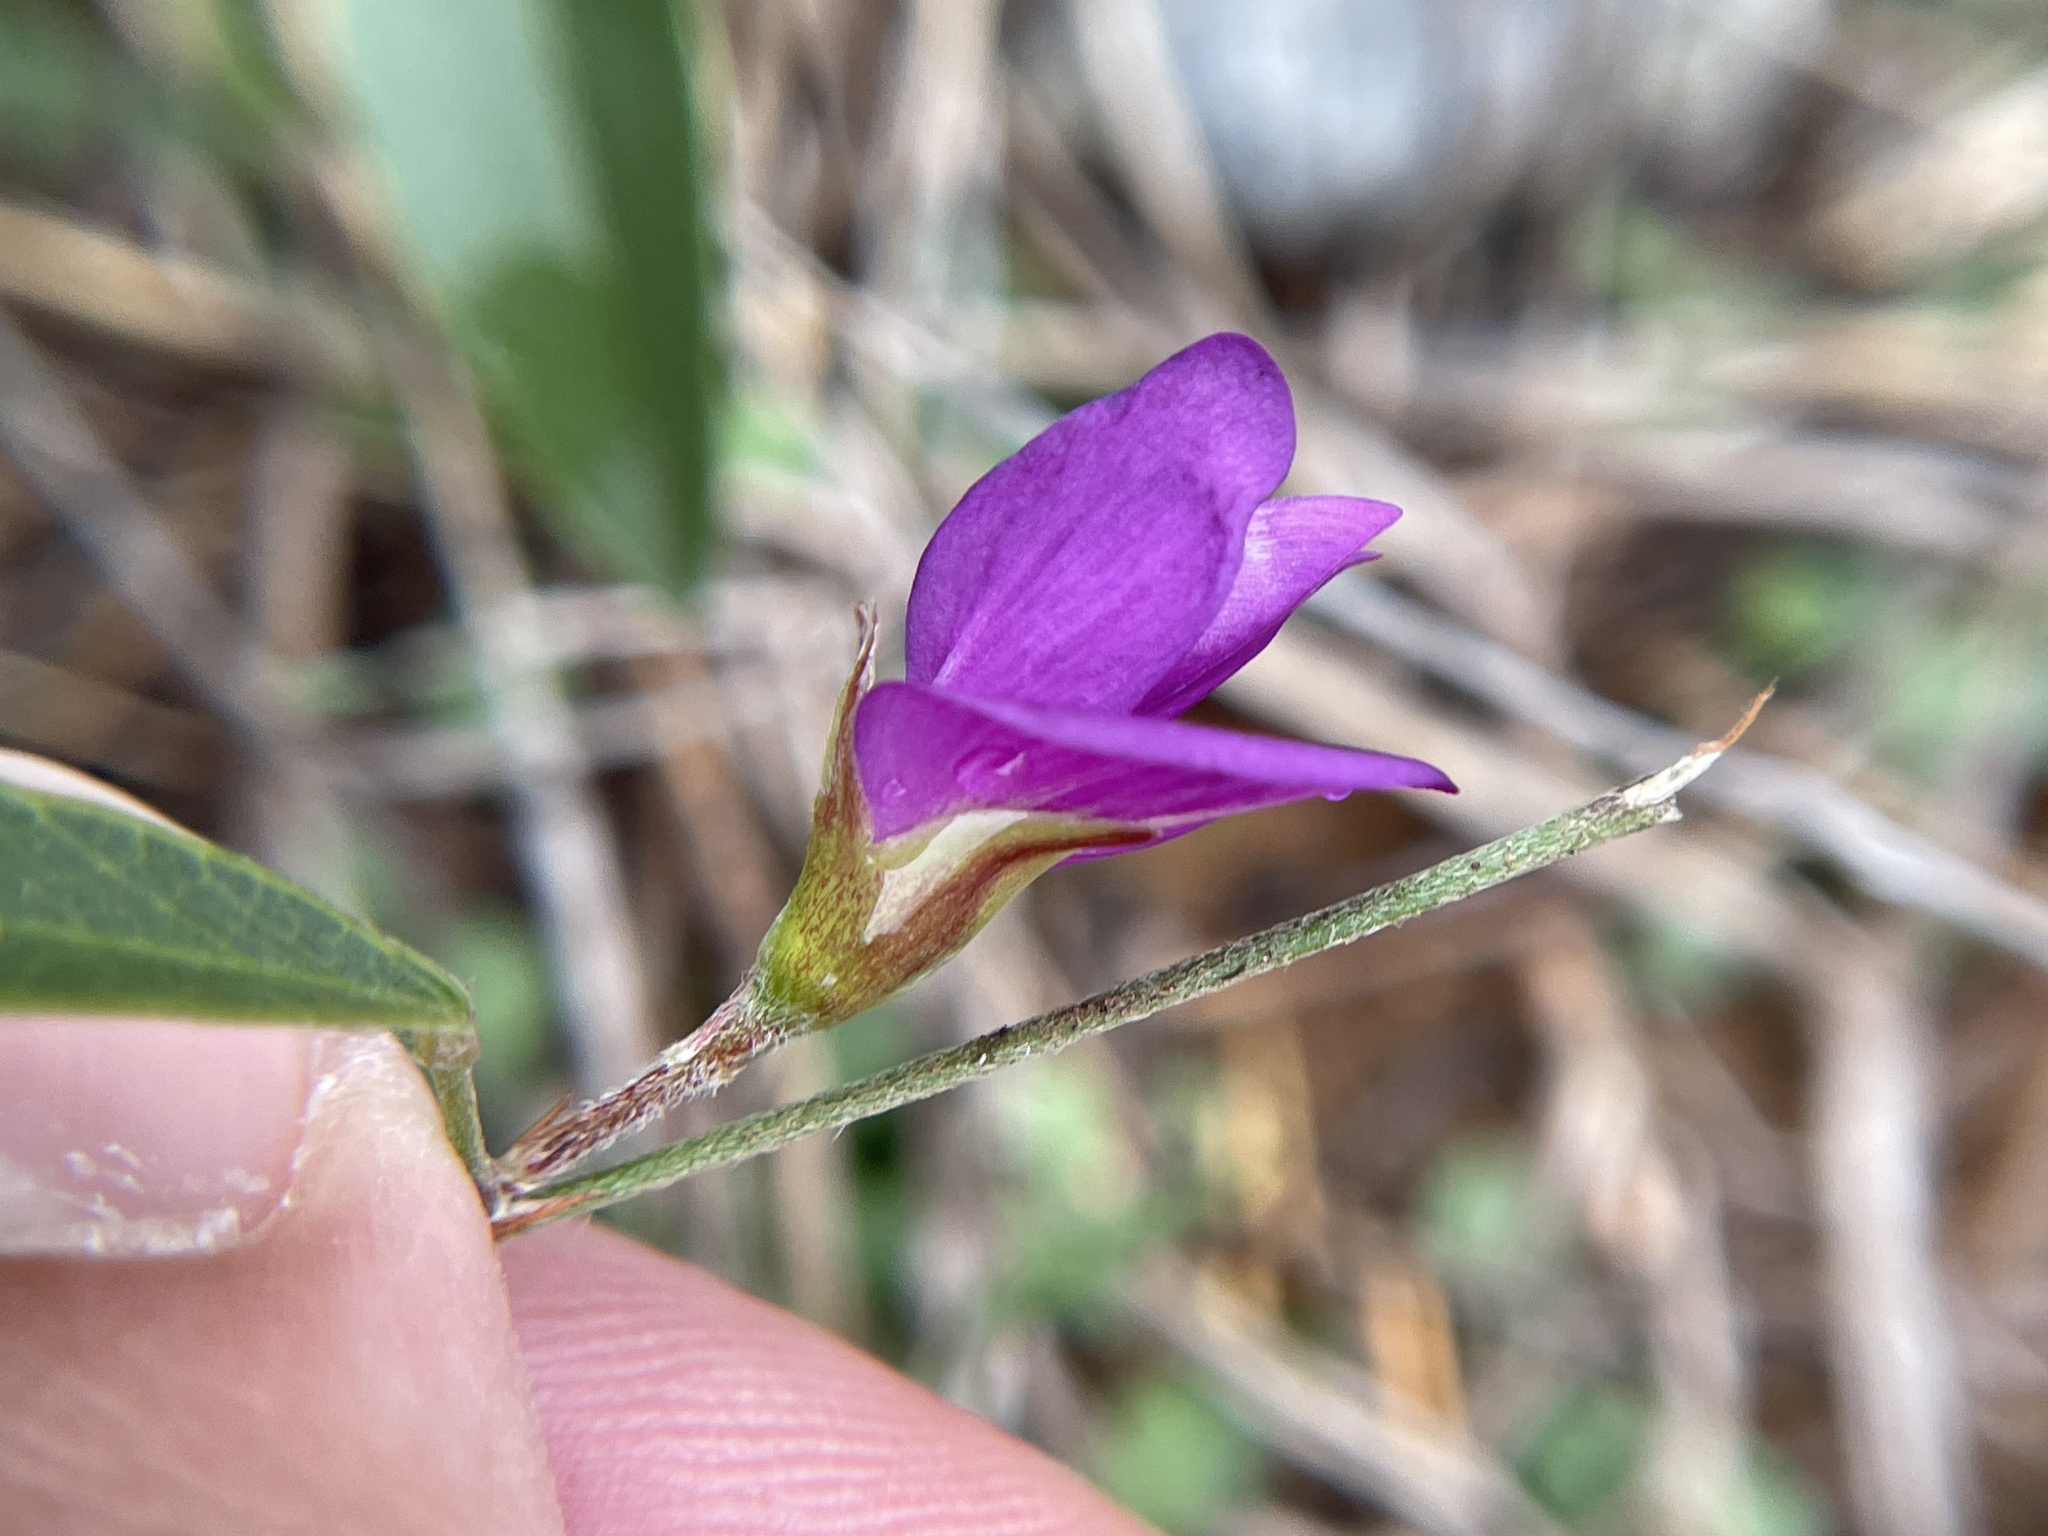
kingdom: Plantae
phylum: Tracheophyta
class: Magnoliopsida
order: Fabales
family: Fabaceae
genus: Nanogalactia
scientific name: Nanogalactia heterophylla
